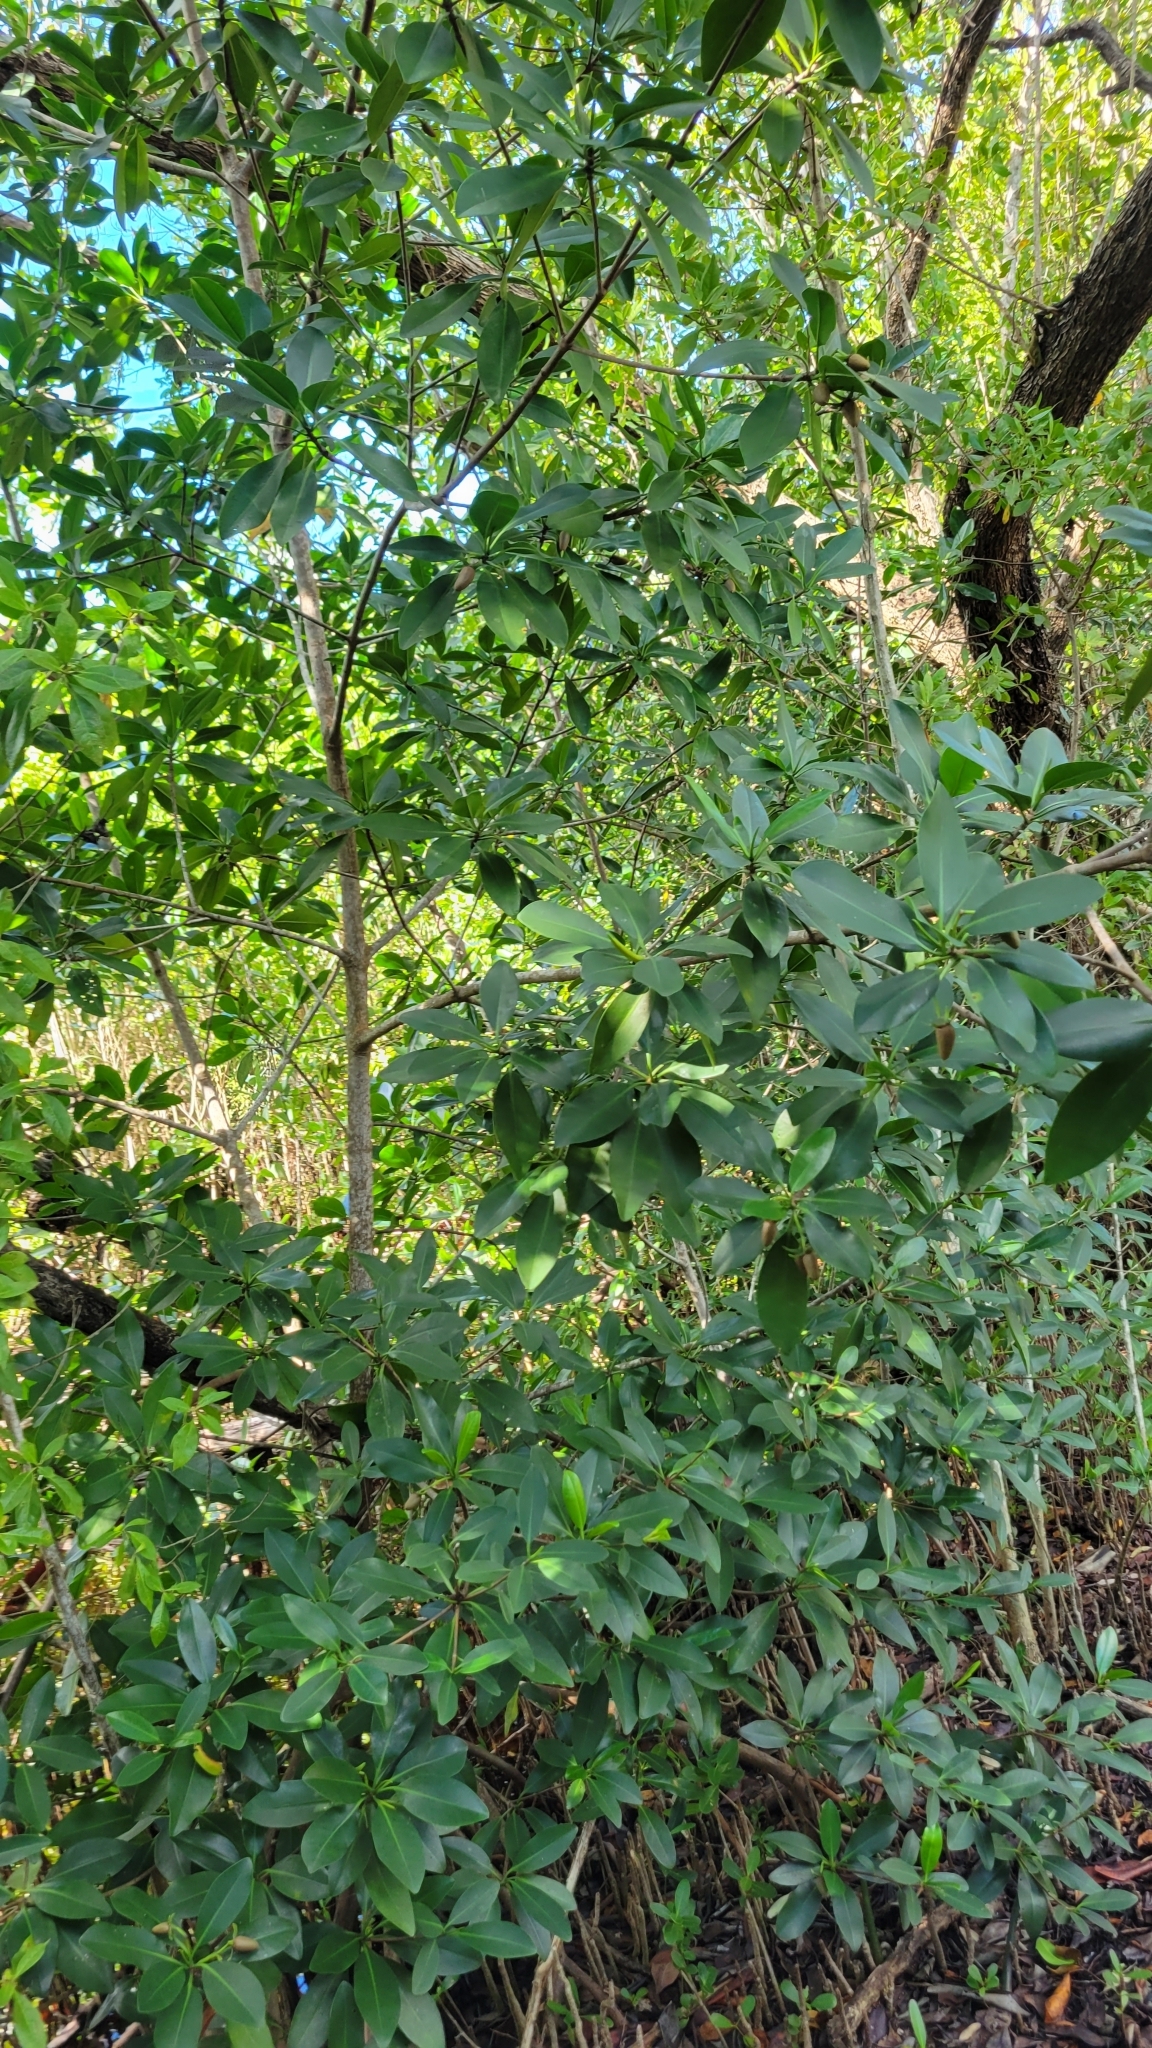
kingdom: Plantae
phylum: Tracheophyta
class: Magnoliopsida
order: Malpighiales
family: Rhizophoraceae
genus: Rhizophora
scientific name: Rhizophora mangle
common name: Red mangrove
